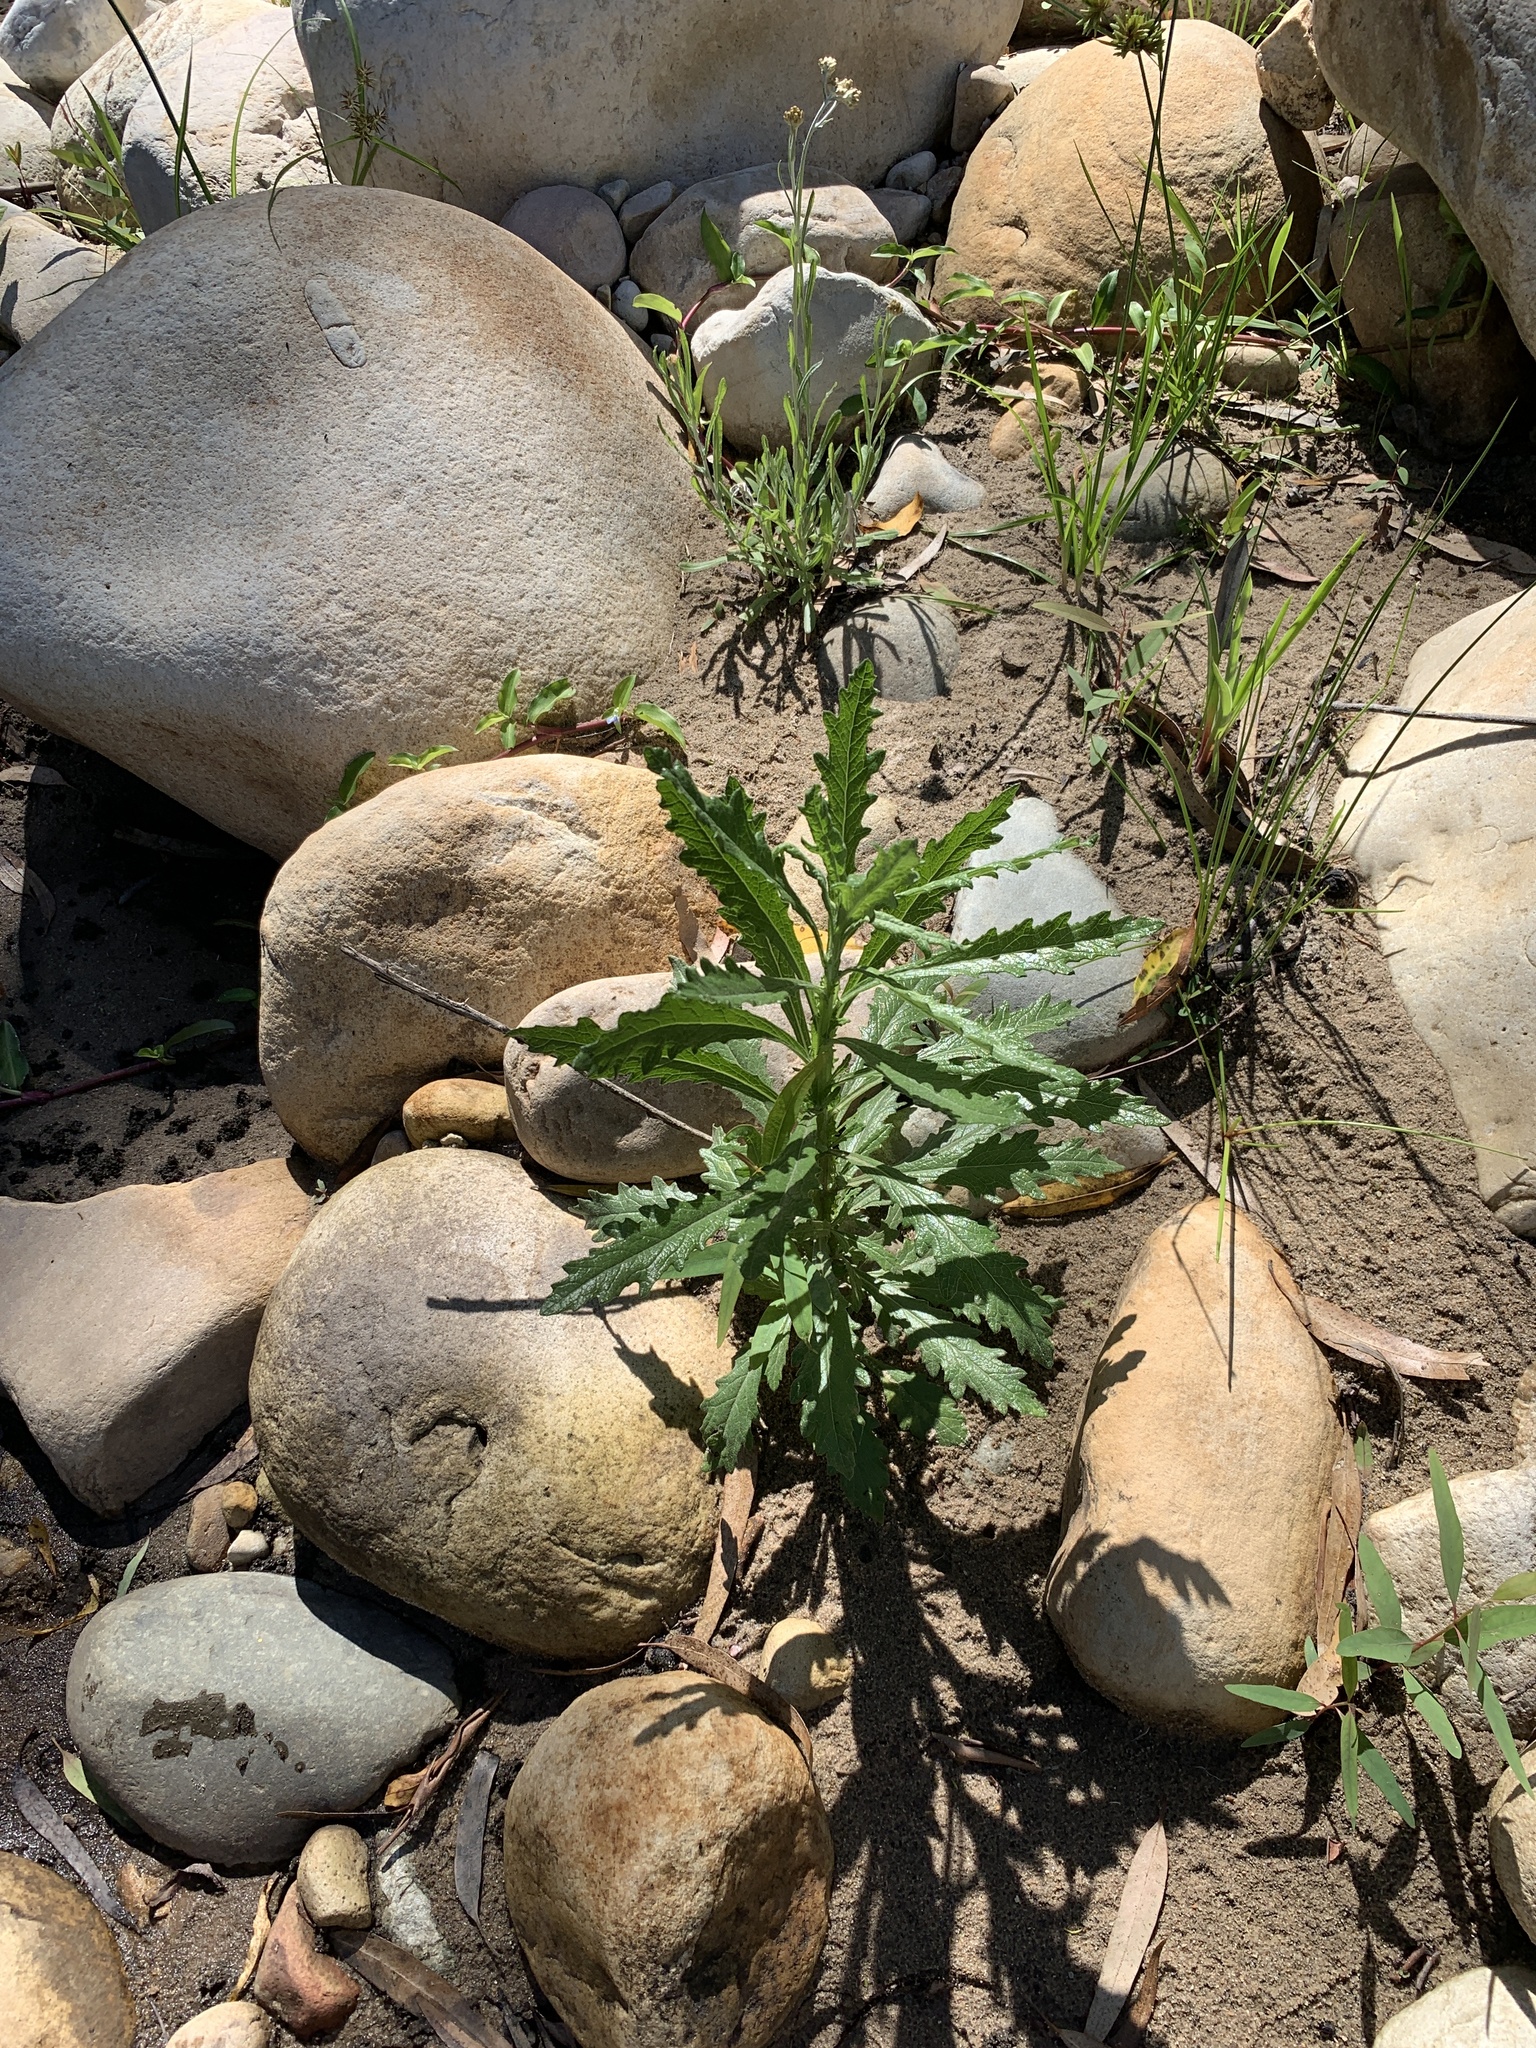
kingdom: Plantae
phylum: Tracheophyta
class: Magnoliopsida
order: Asterales
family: Asteraceae
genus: Senecio
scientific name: Senecio pterophorus
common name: Shoddy ragwort
